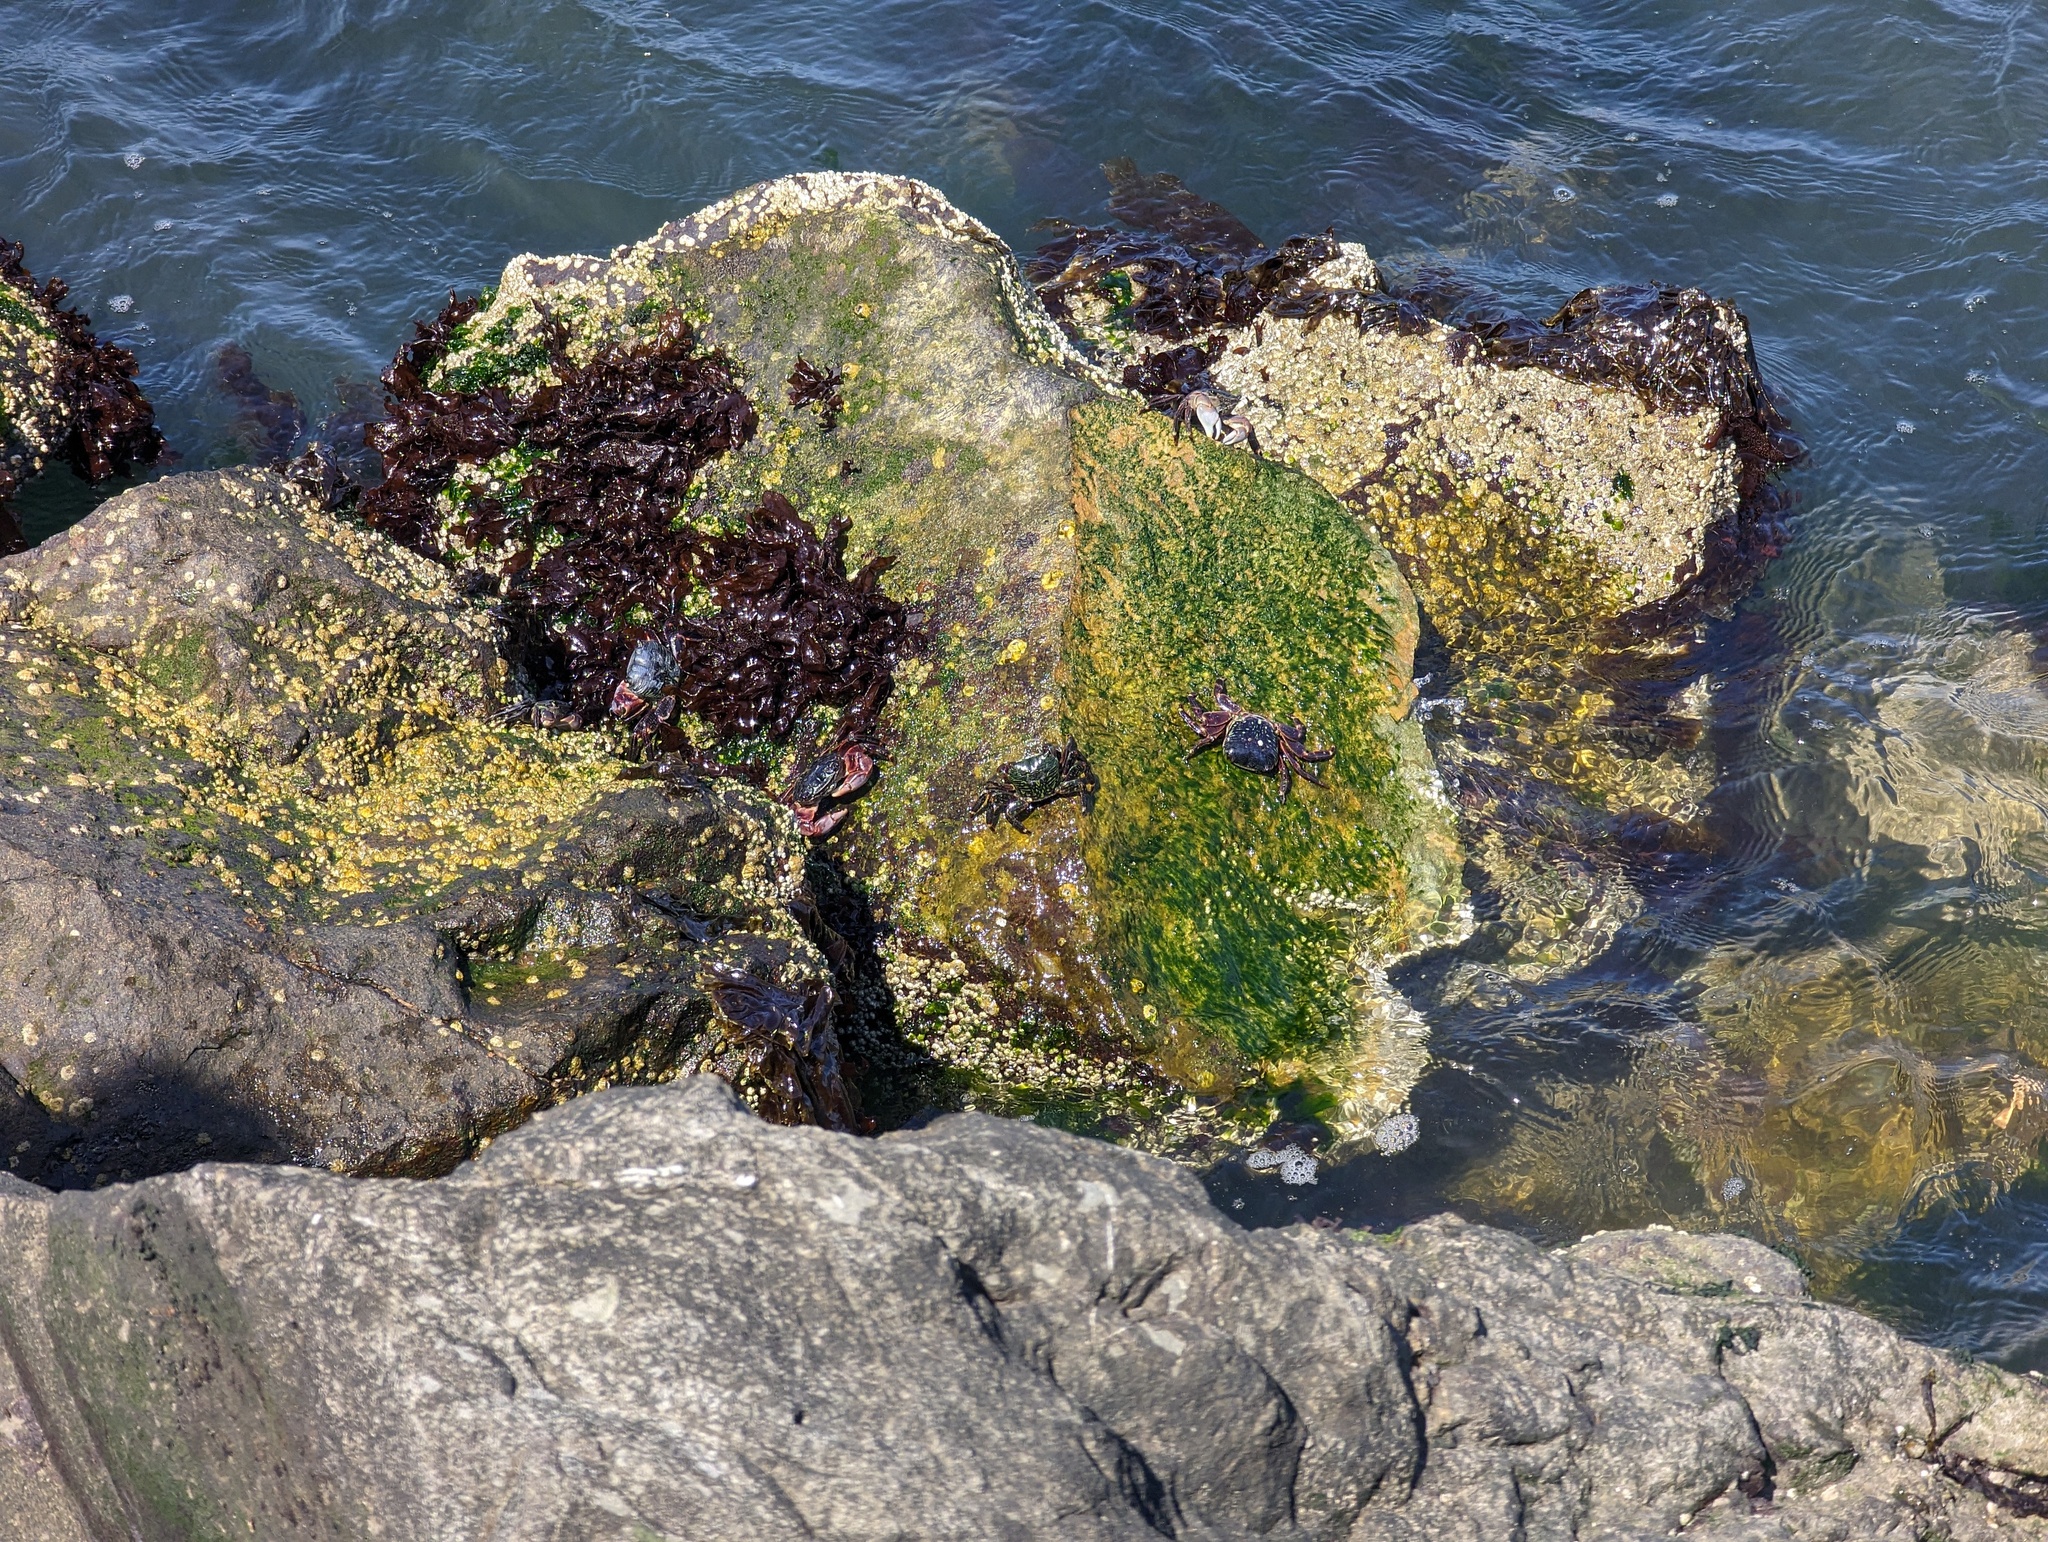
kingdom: Animalia
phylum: Arthropoda
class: Malacostraca
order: Decapoda
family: Grapsidae
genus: Pachygrapsus
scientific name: Pachygrapsus crassipes
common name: Striped shore crab
